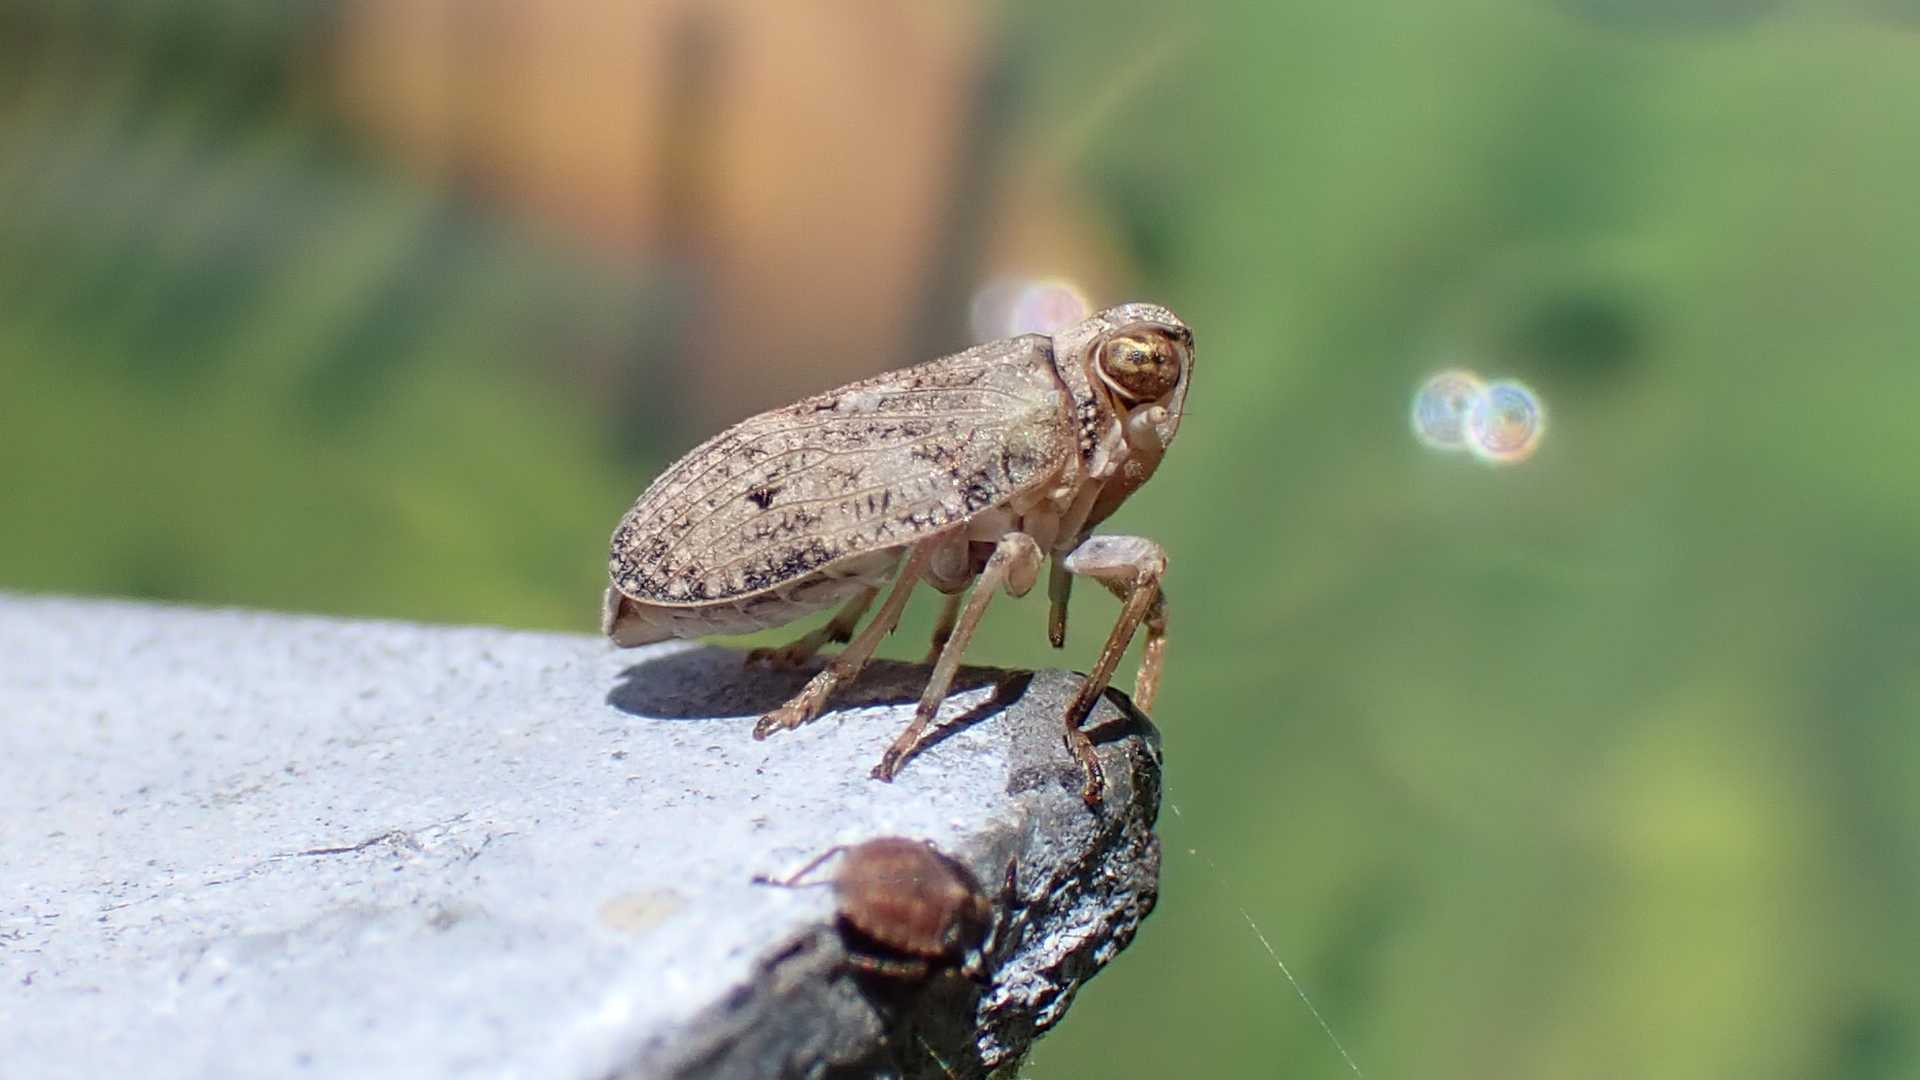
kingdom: Animalia
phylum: Arthropoda
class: Insecta
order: Hemiptera
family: Issidae
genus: Issus
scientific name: Issus coleoptratus
